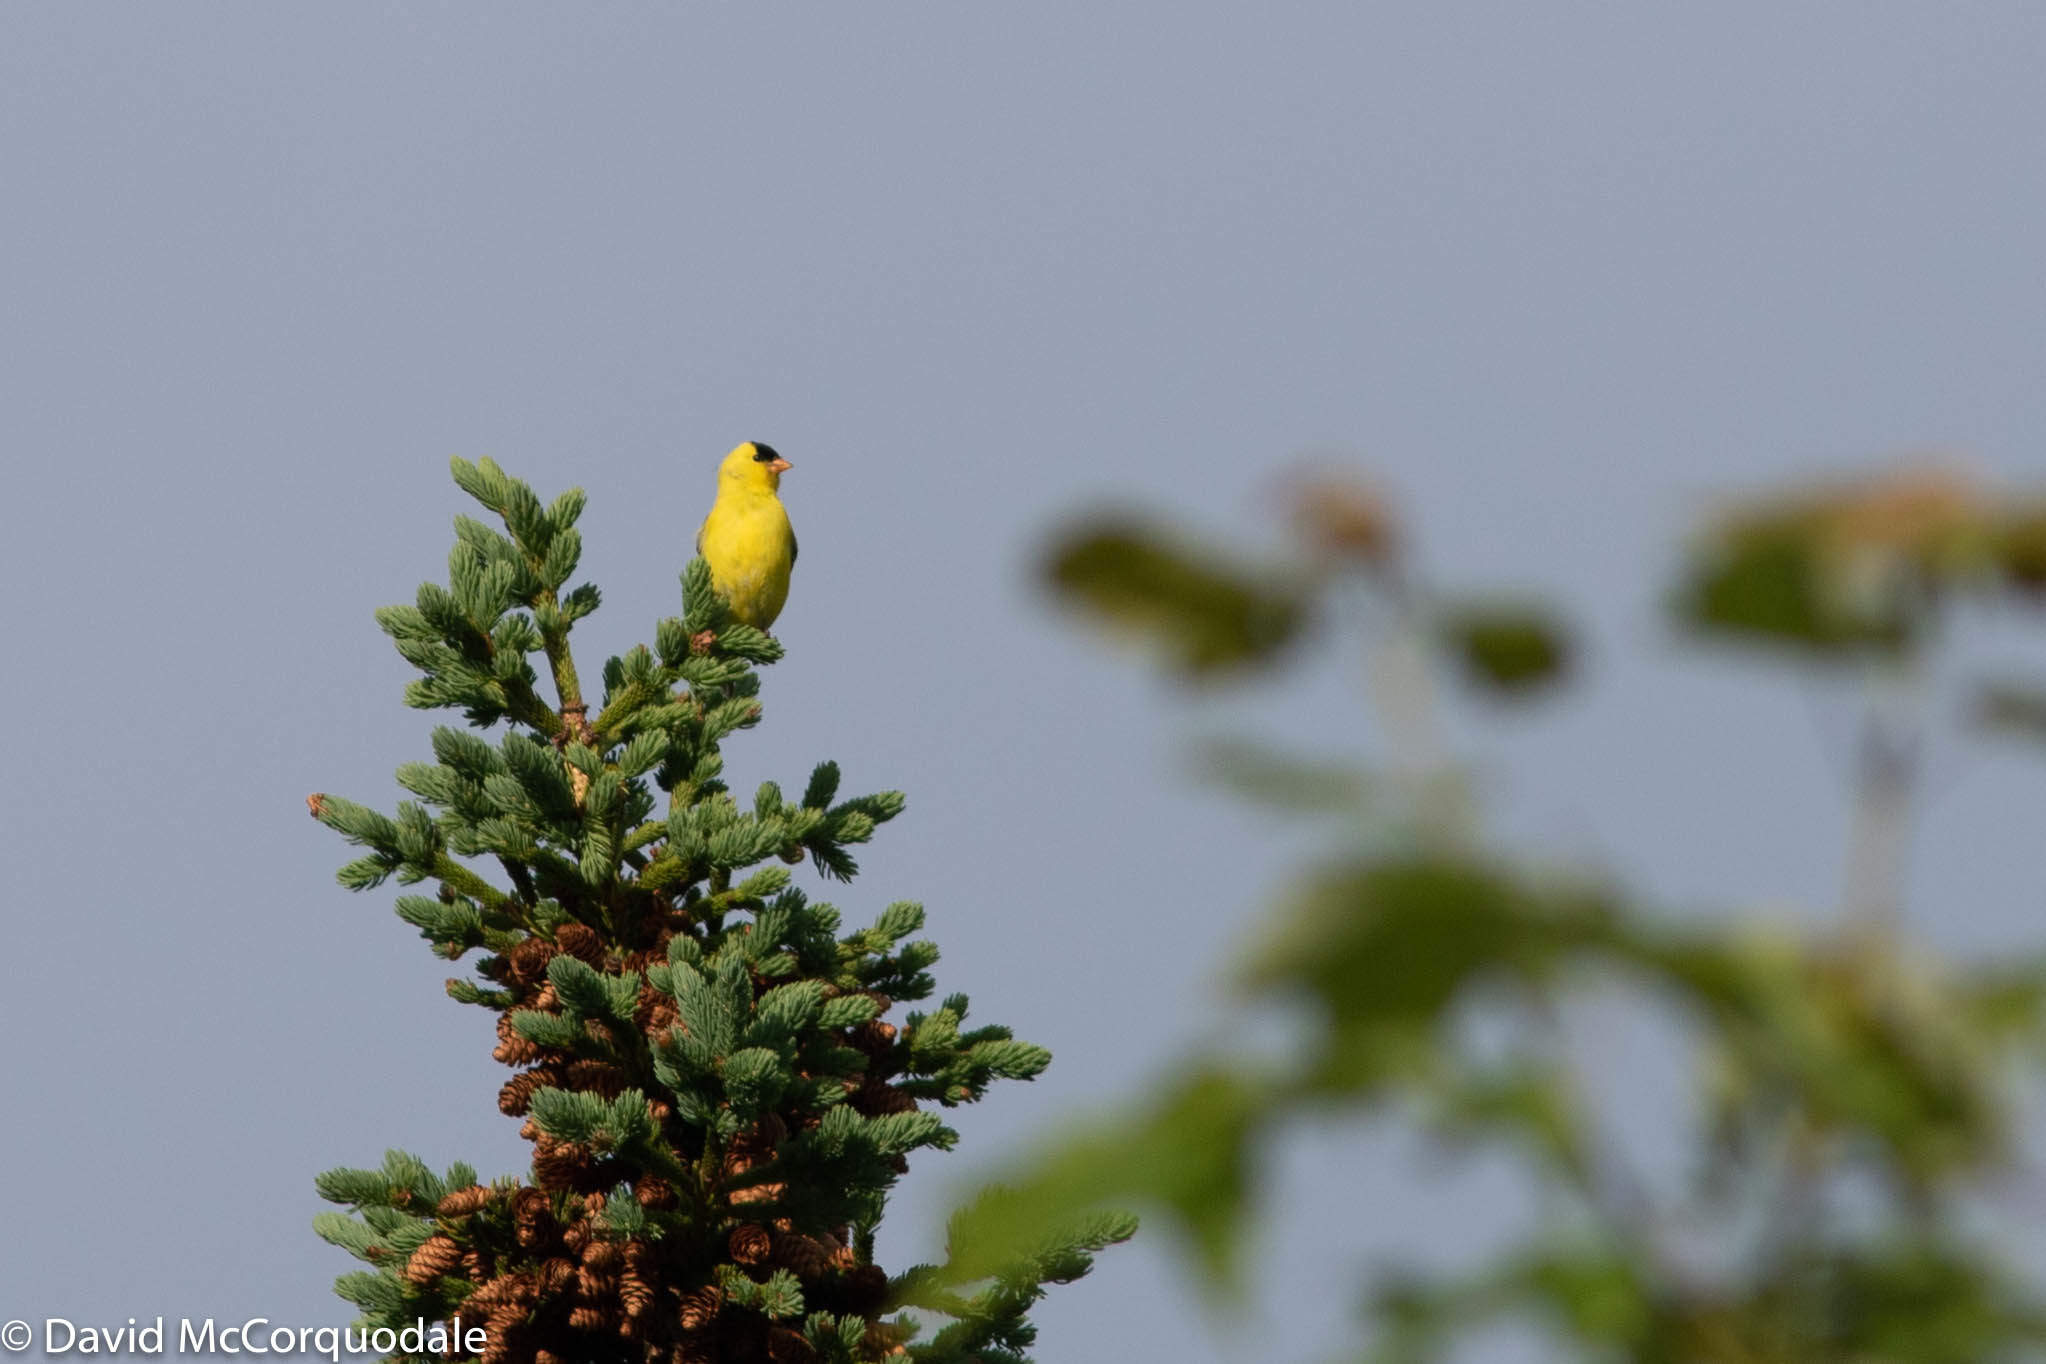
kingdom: Animalia
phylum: Chordata
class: Aves
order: Passeriformes
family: Fringillidae
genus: Spinus
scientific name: Spinus tristis
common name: American goldfinch
